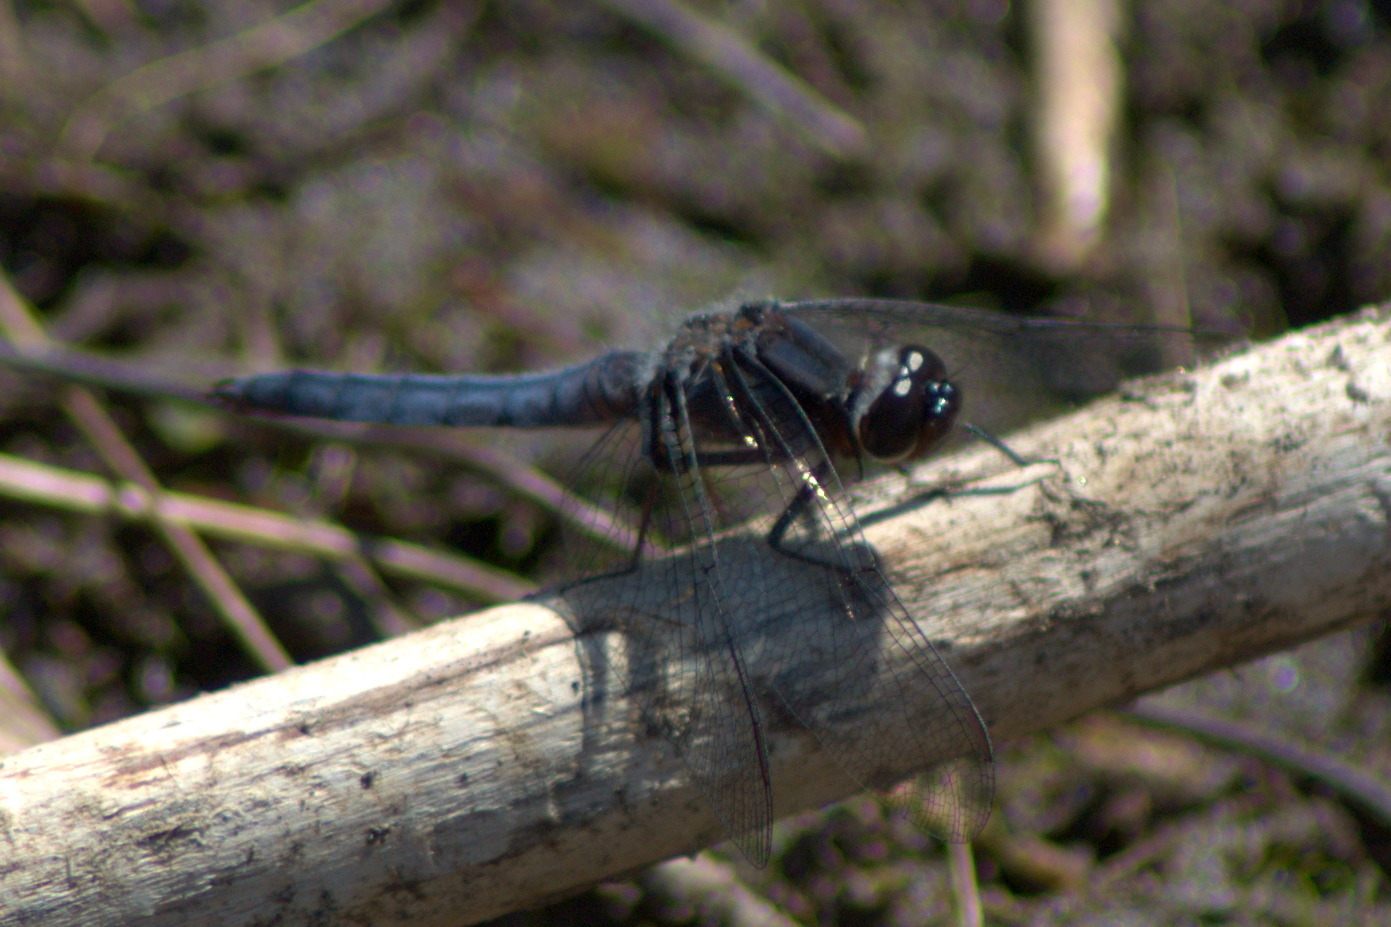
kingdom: Animalia
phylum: Arthropoda
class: Insecta
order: Odonata
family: Libellulidae
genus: Ladona
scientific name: Ladona deplanata
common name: Blue corporal
